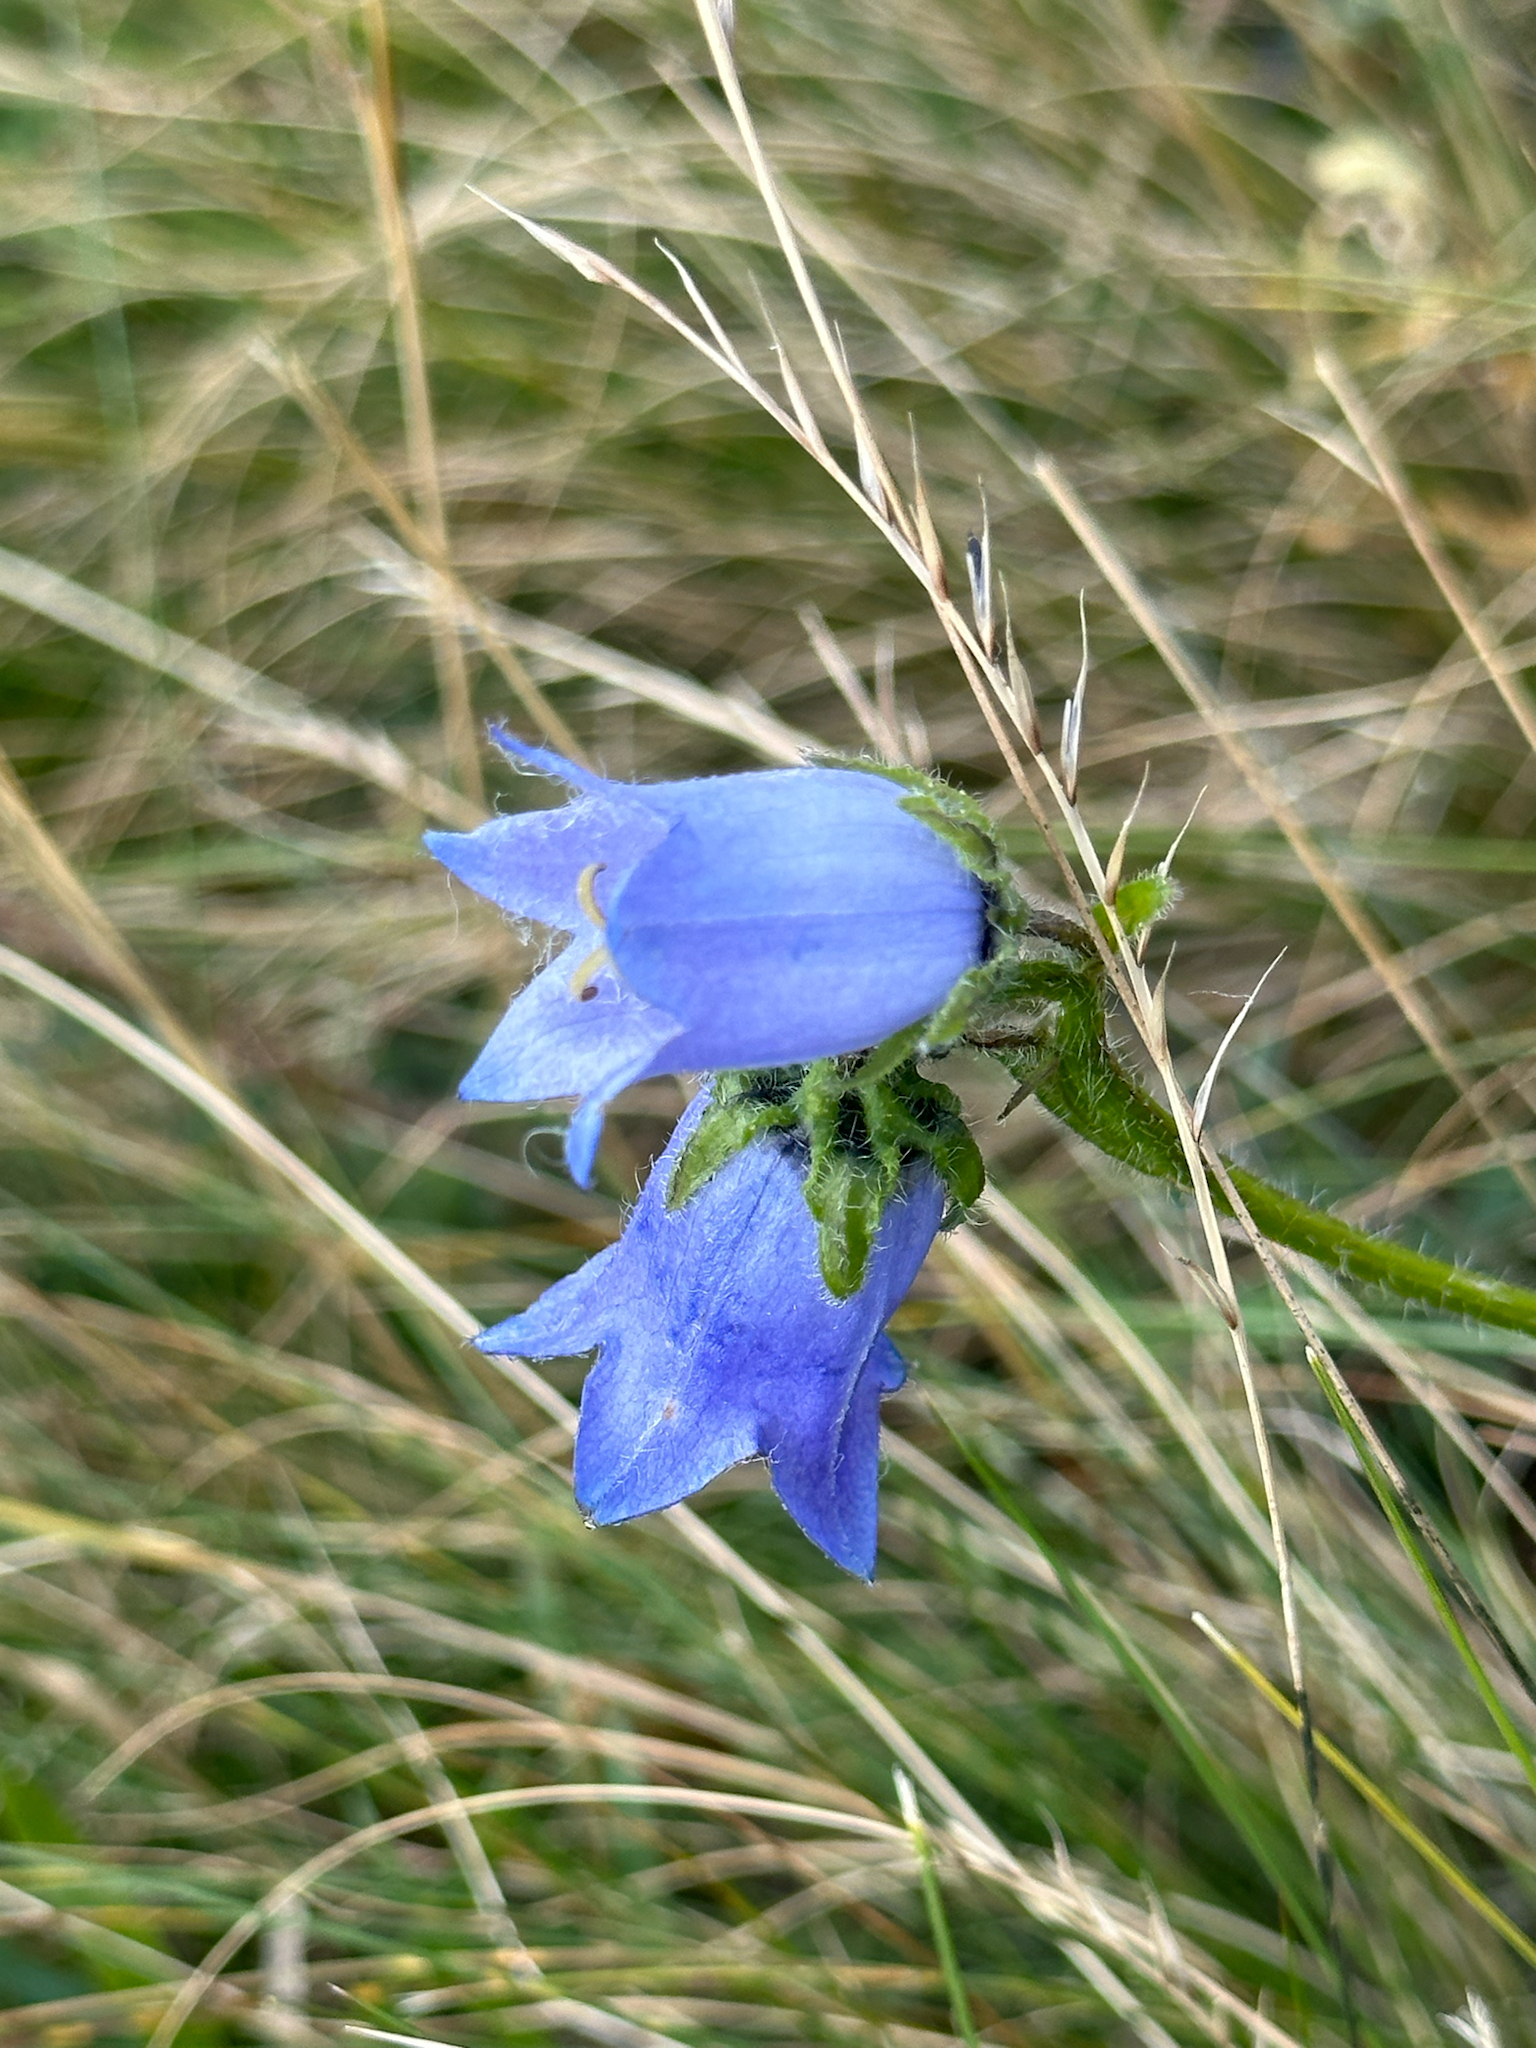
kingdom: Plantae
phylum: Tracheophyta
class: Magnoliopsida
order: Asterales
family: Campanulaceae
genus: Campanula
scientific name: Campanula barbata
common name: Bearded bellflower
